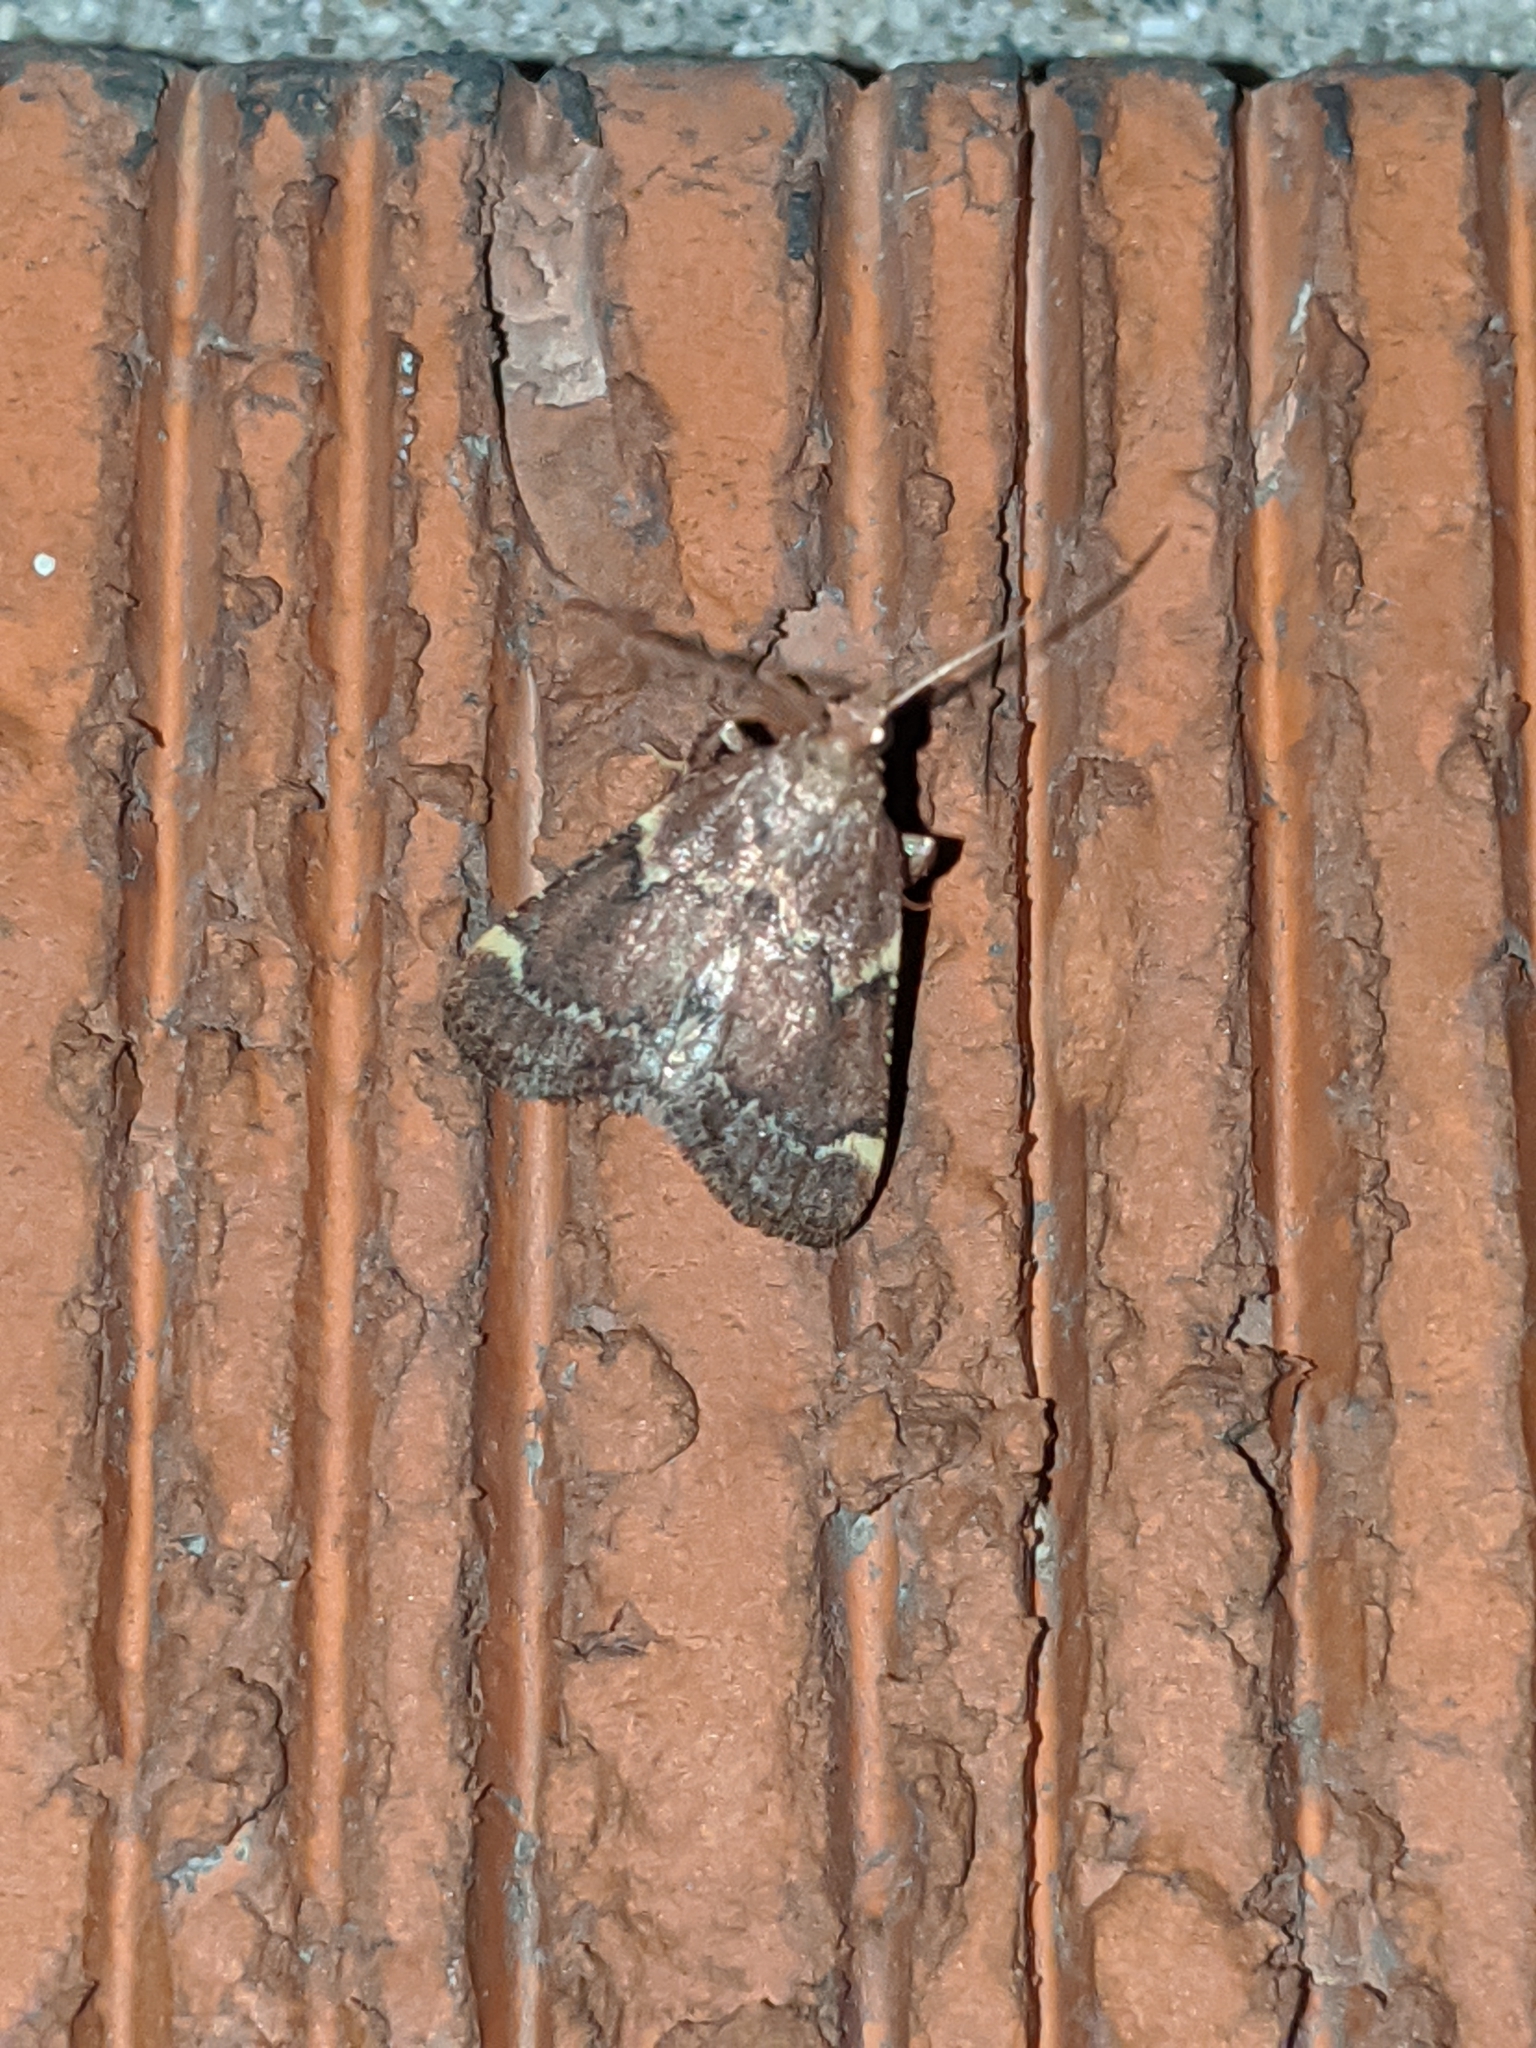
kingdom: Animalia
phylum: Arthropoda
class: Insecta
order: Lepidoptera
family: Pyralidae
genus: Hypsopygia
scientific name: Hypsopygia intermedialis
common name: Red-shawled moth
